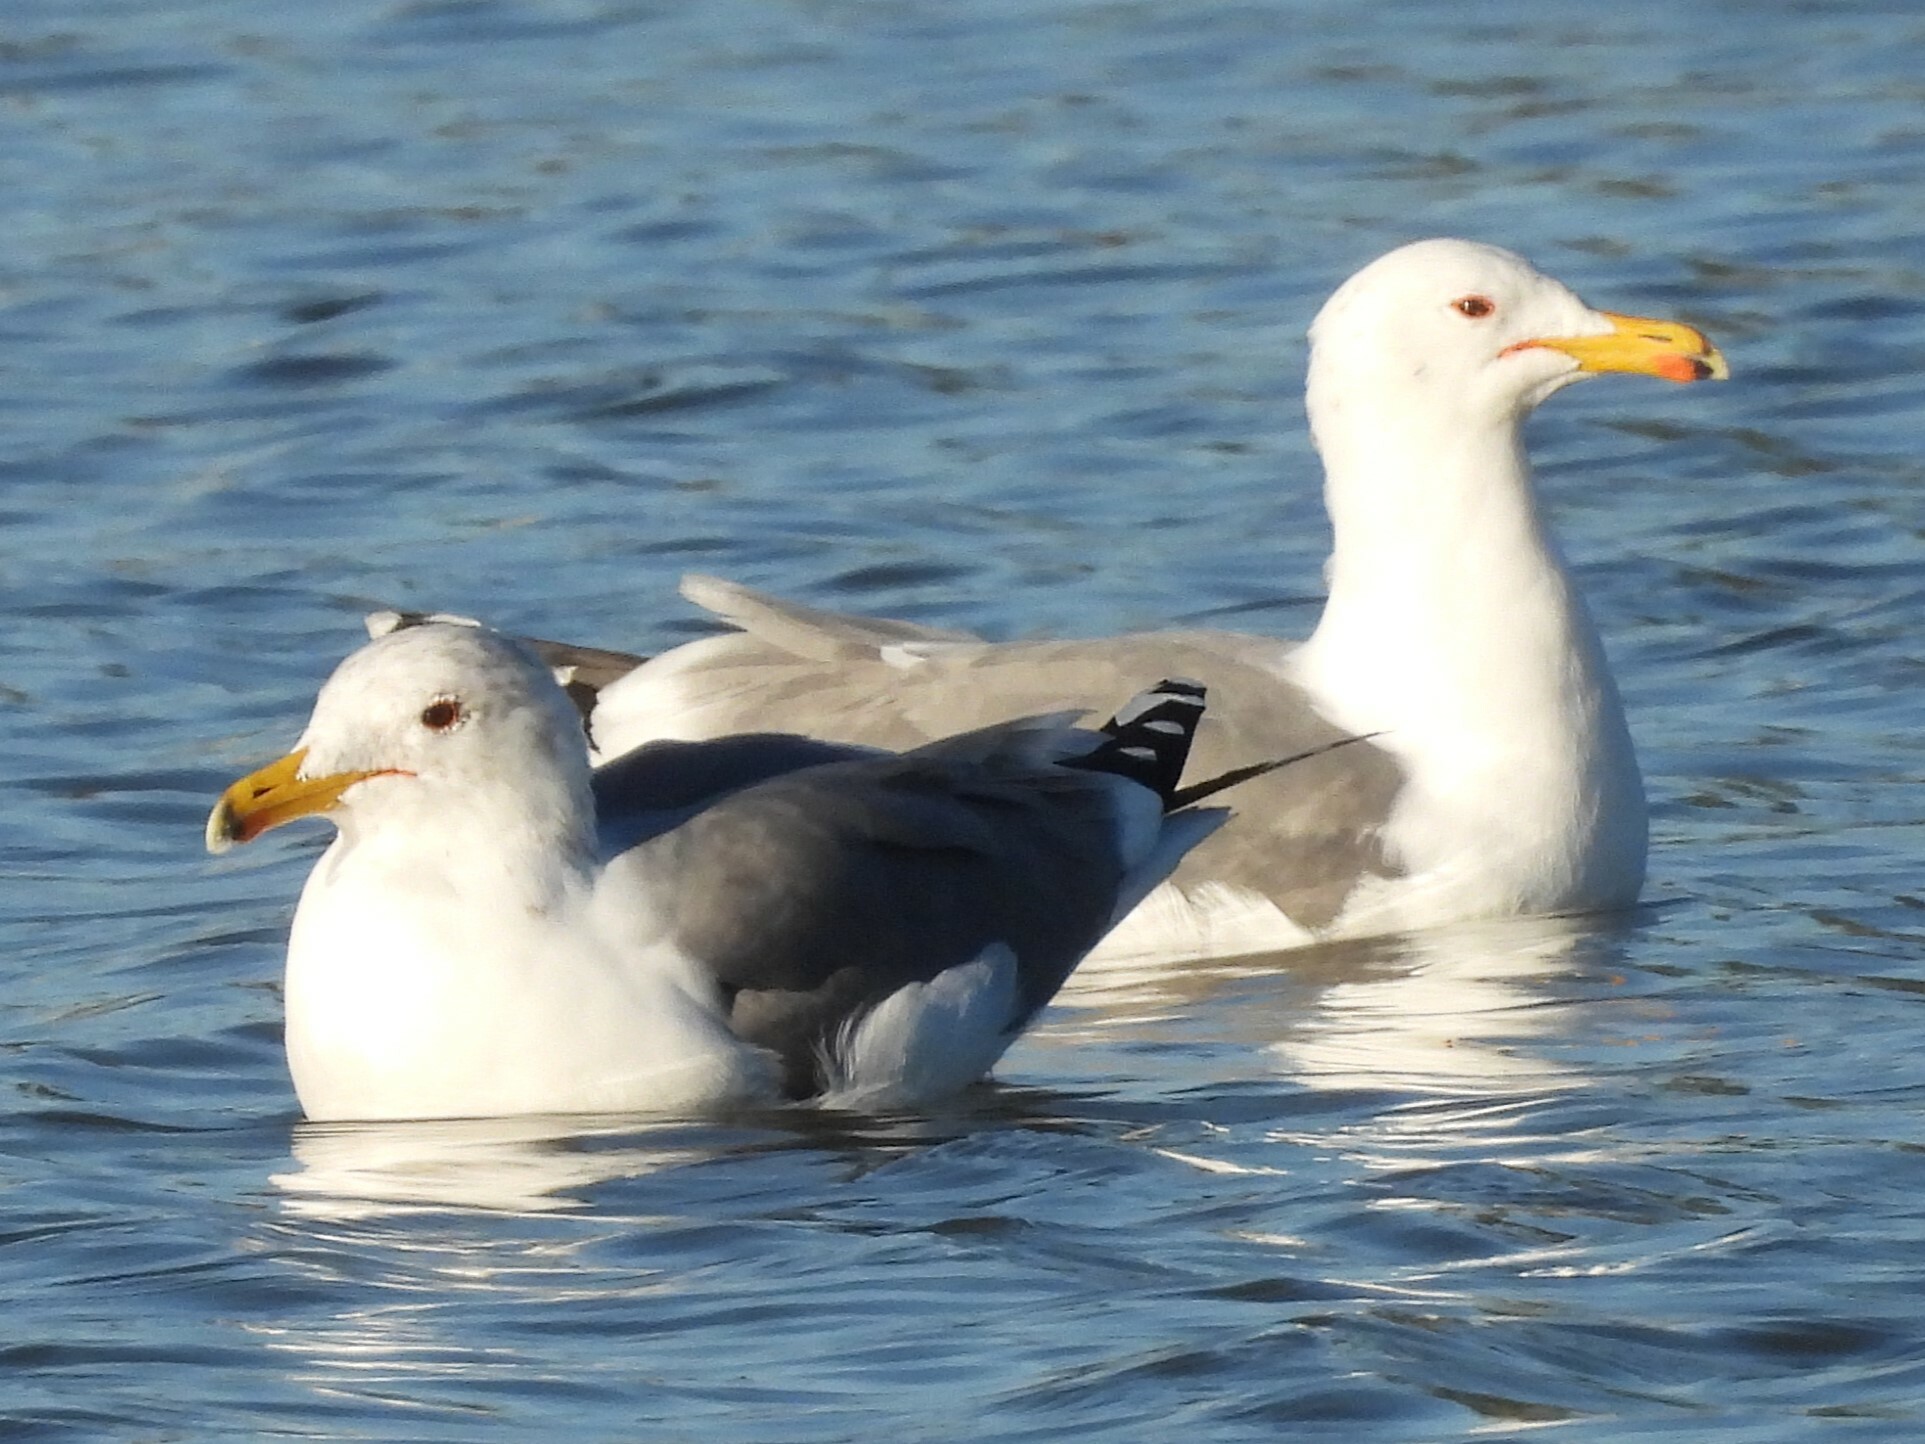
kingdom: Animalia
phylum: Chordata
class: Aves
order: Charadriiformes
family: Laridae
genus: Larus
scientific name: Larus californicus
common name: California gull
